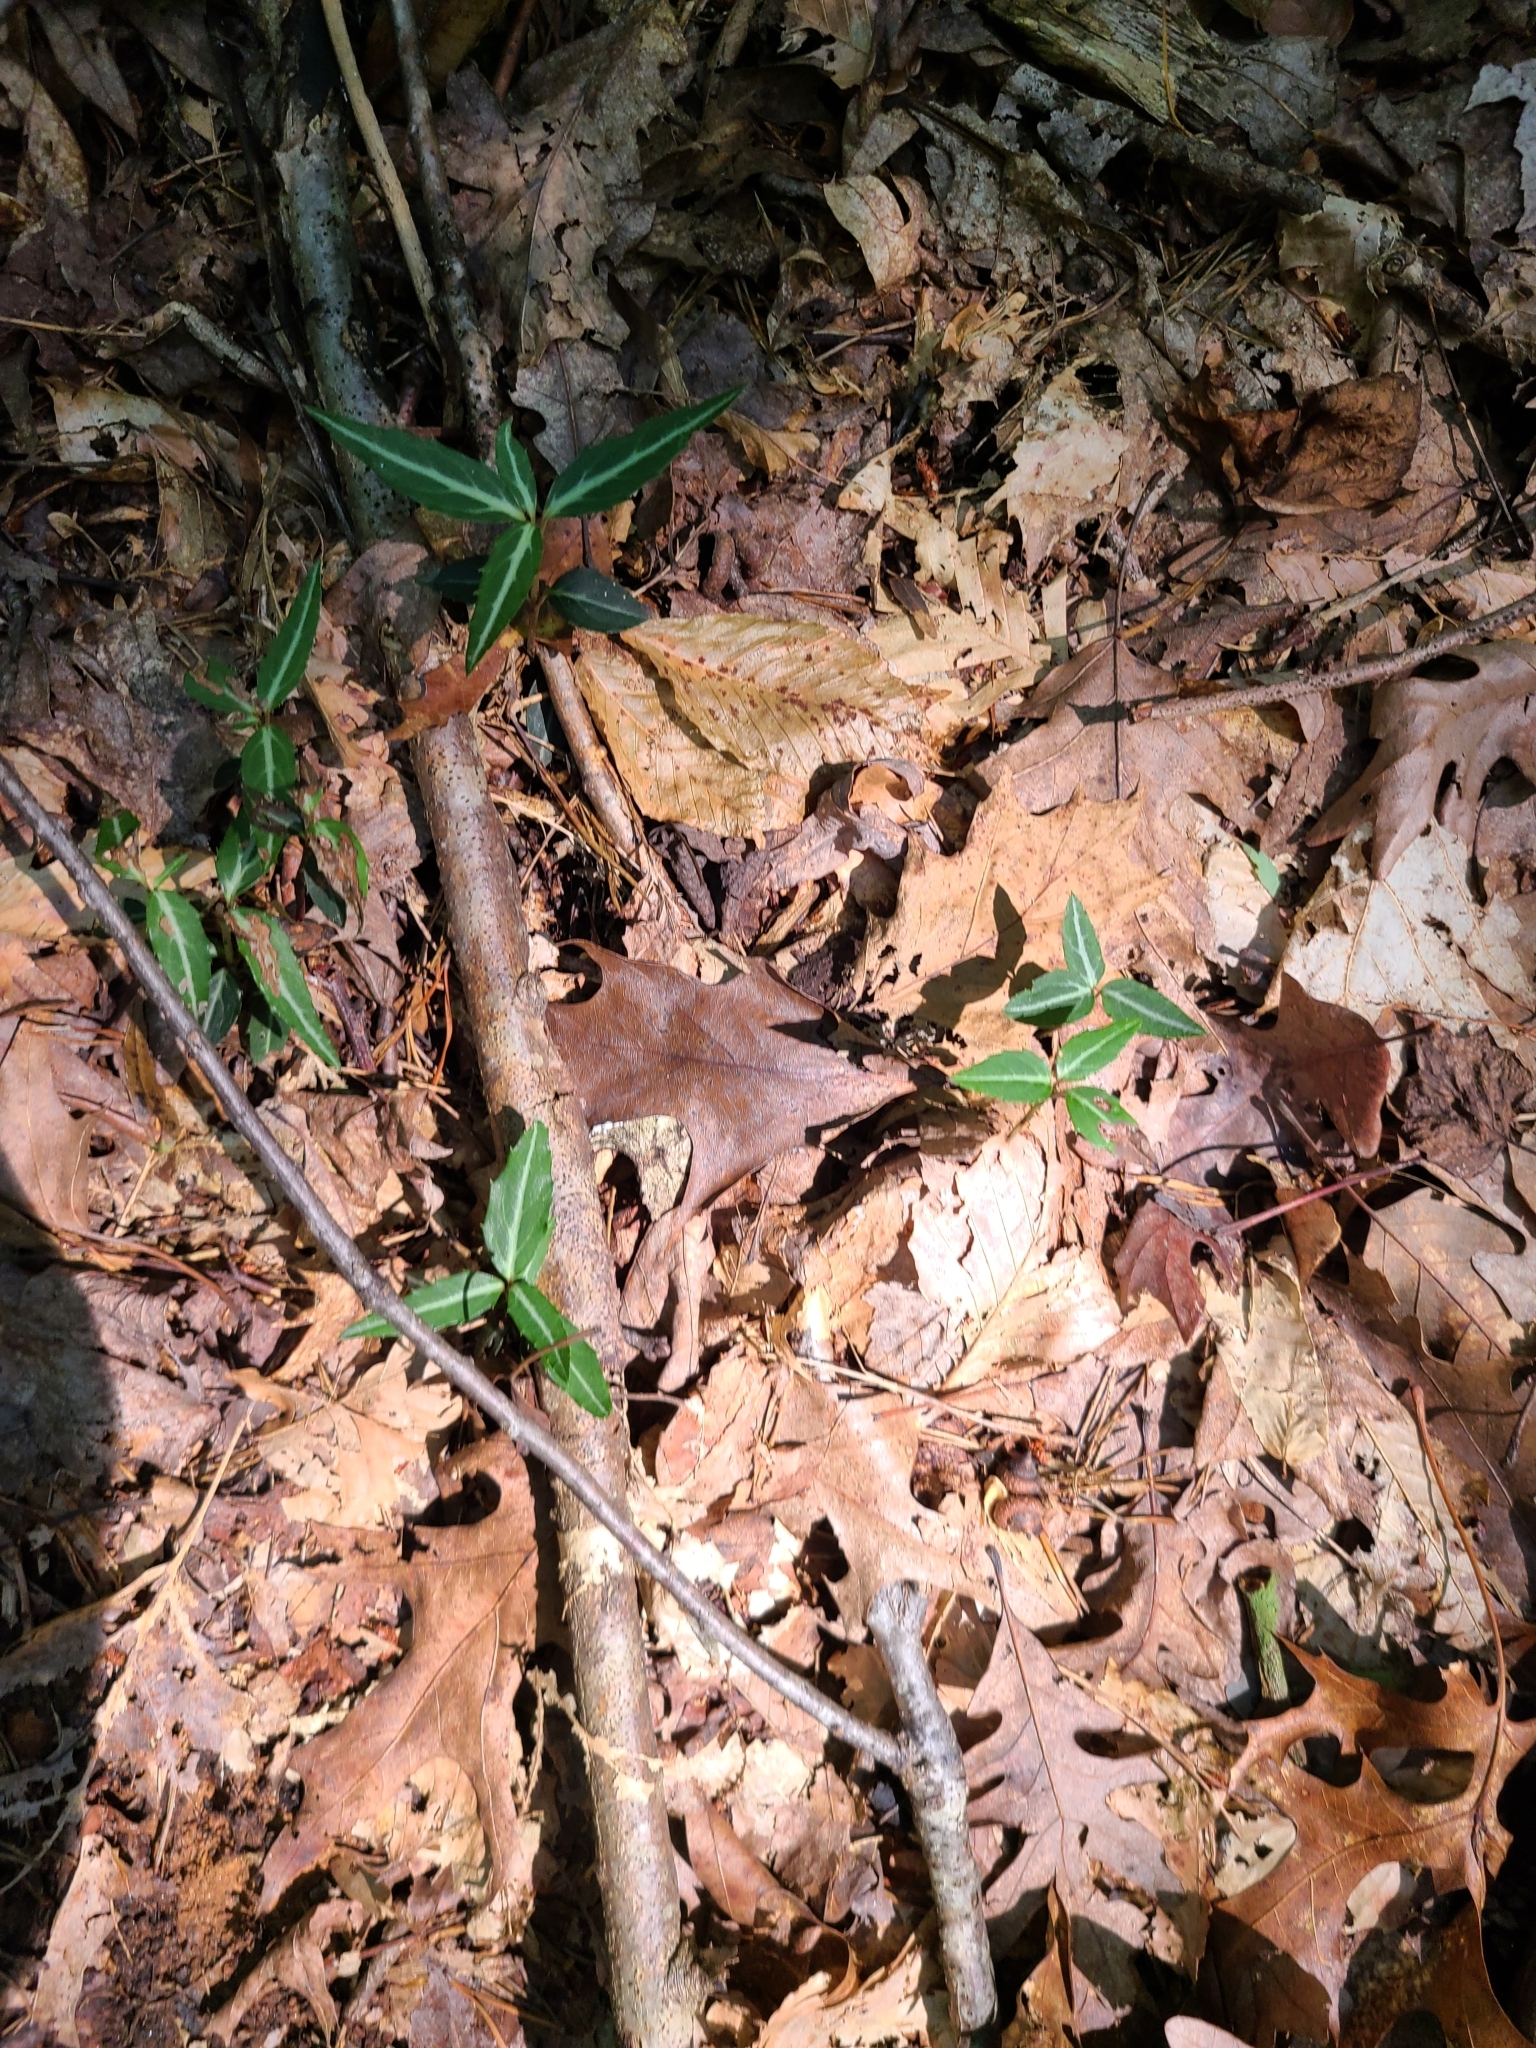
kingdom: Plantae
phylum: Tracheophyta
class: Magnoliopsida
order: Ericales
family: Ericaceae
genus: Chimaphila
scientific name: Chimaphila maculata
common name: Spotted pipsissewa
